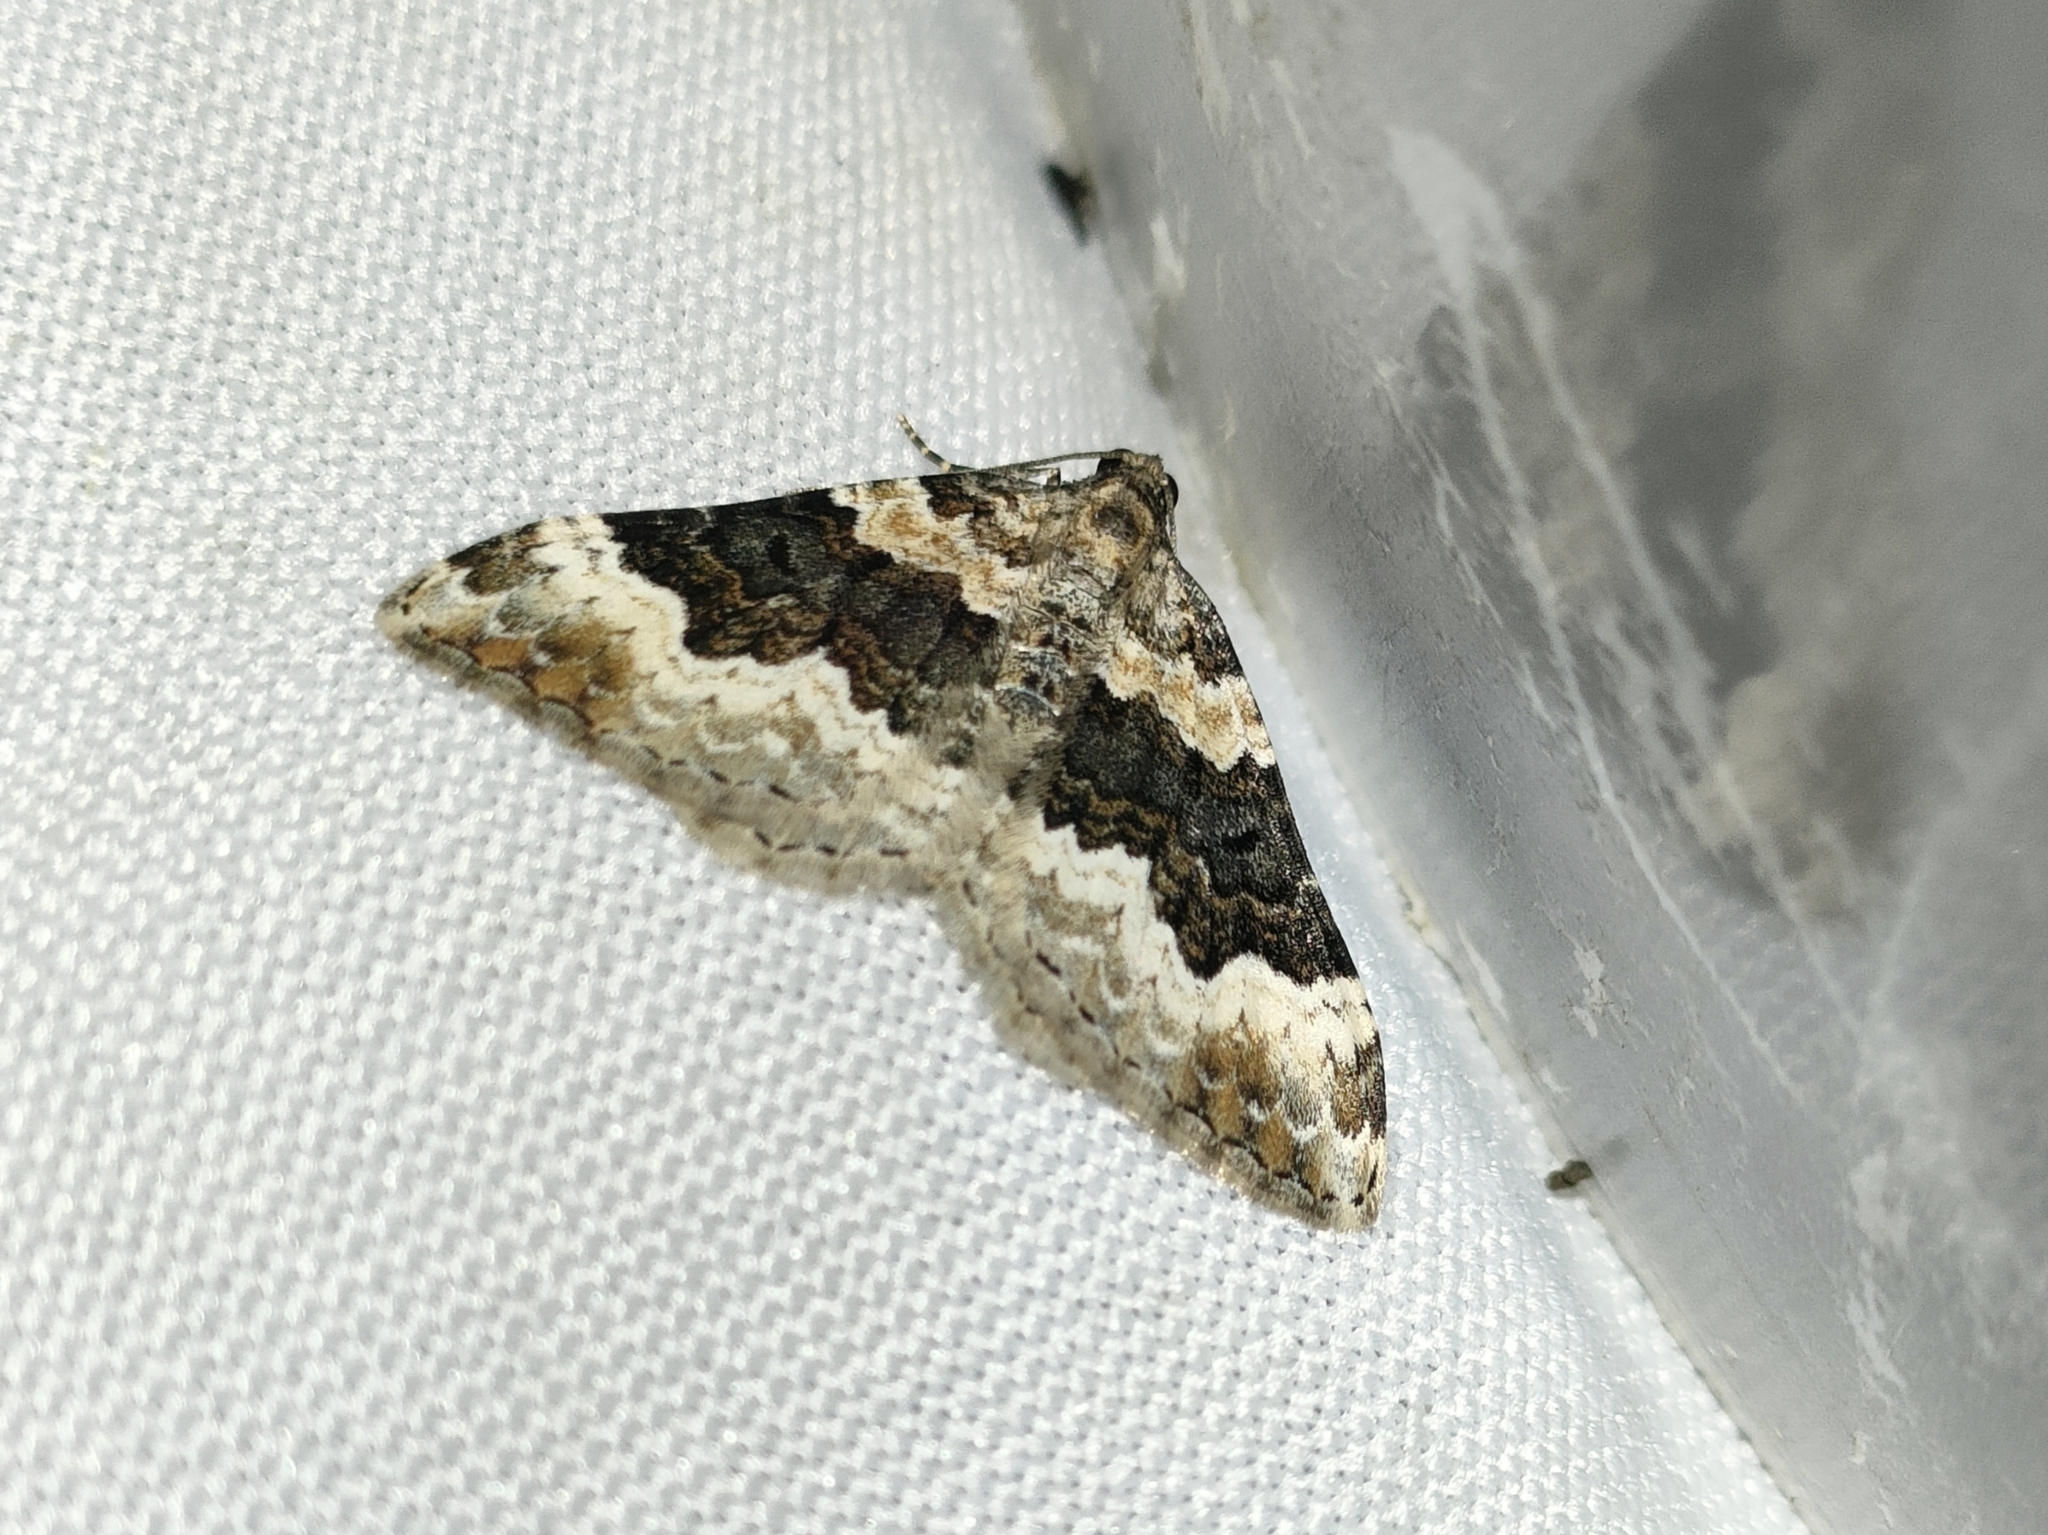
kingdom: Animalia
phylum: Arthropoda
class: Insecta
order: Lepidoptera
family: Geometridae
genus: Epirrhoe
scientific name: Epirrhoe galiata
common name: Galium carpet
